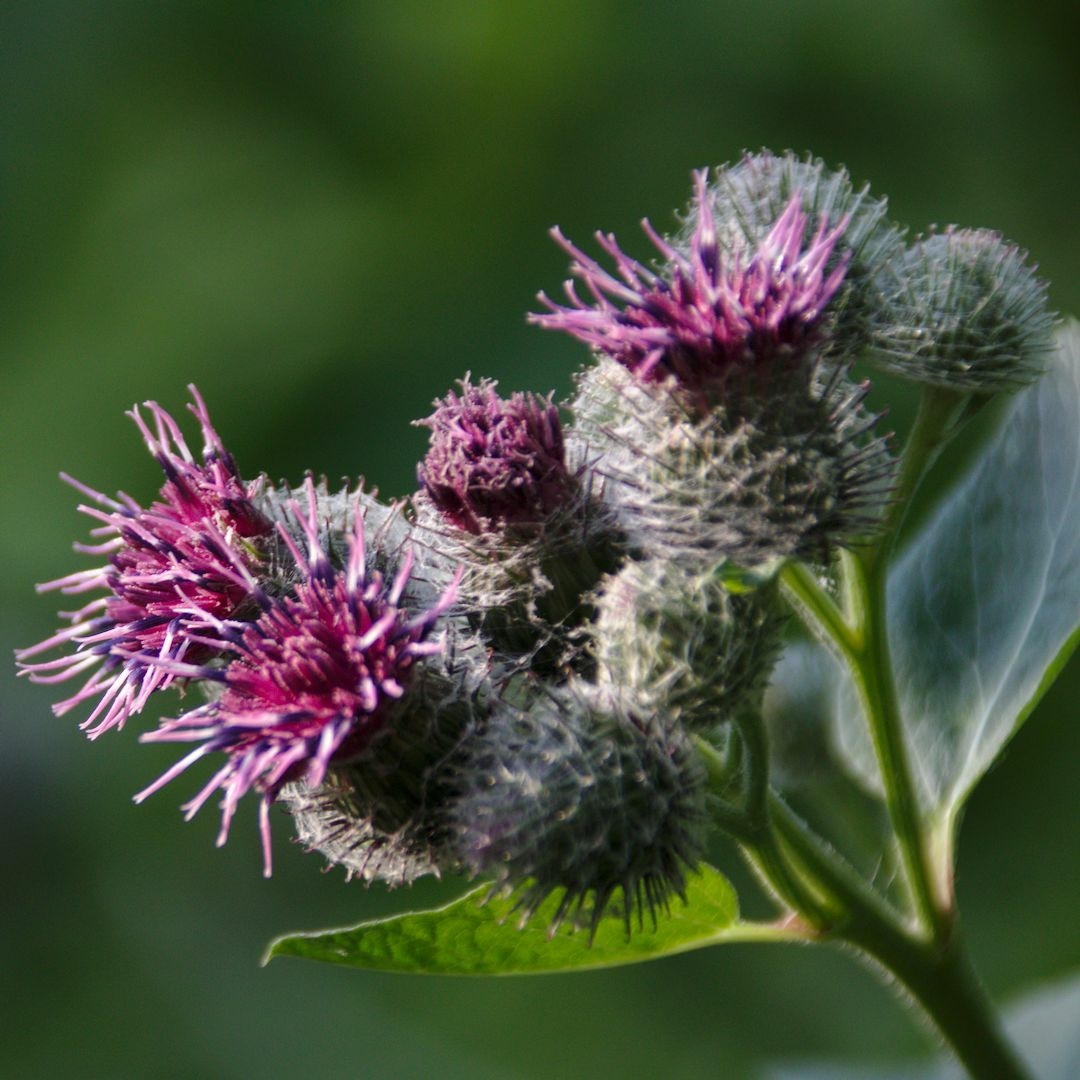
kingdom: Plantae
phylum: Tracheophyta
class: Magnoliopsida
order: Asterales
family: Asteraceae
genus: Arctium
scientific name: Arctium tomentosum
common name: Woolly burdock
